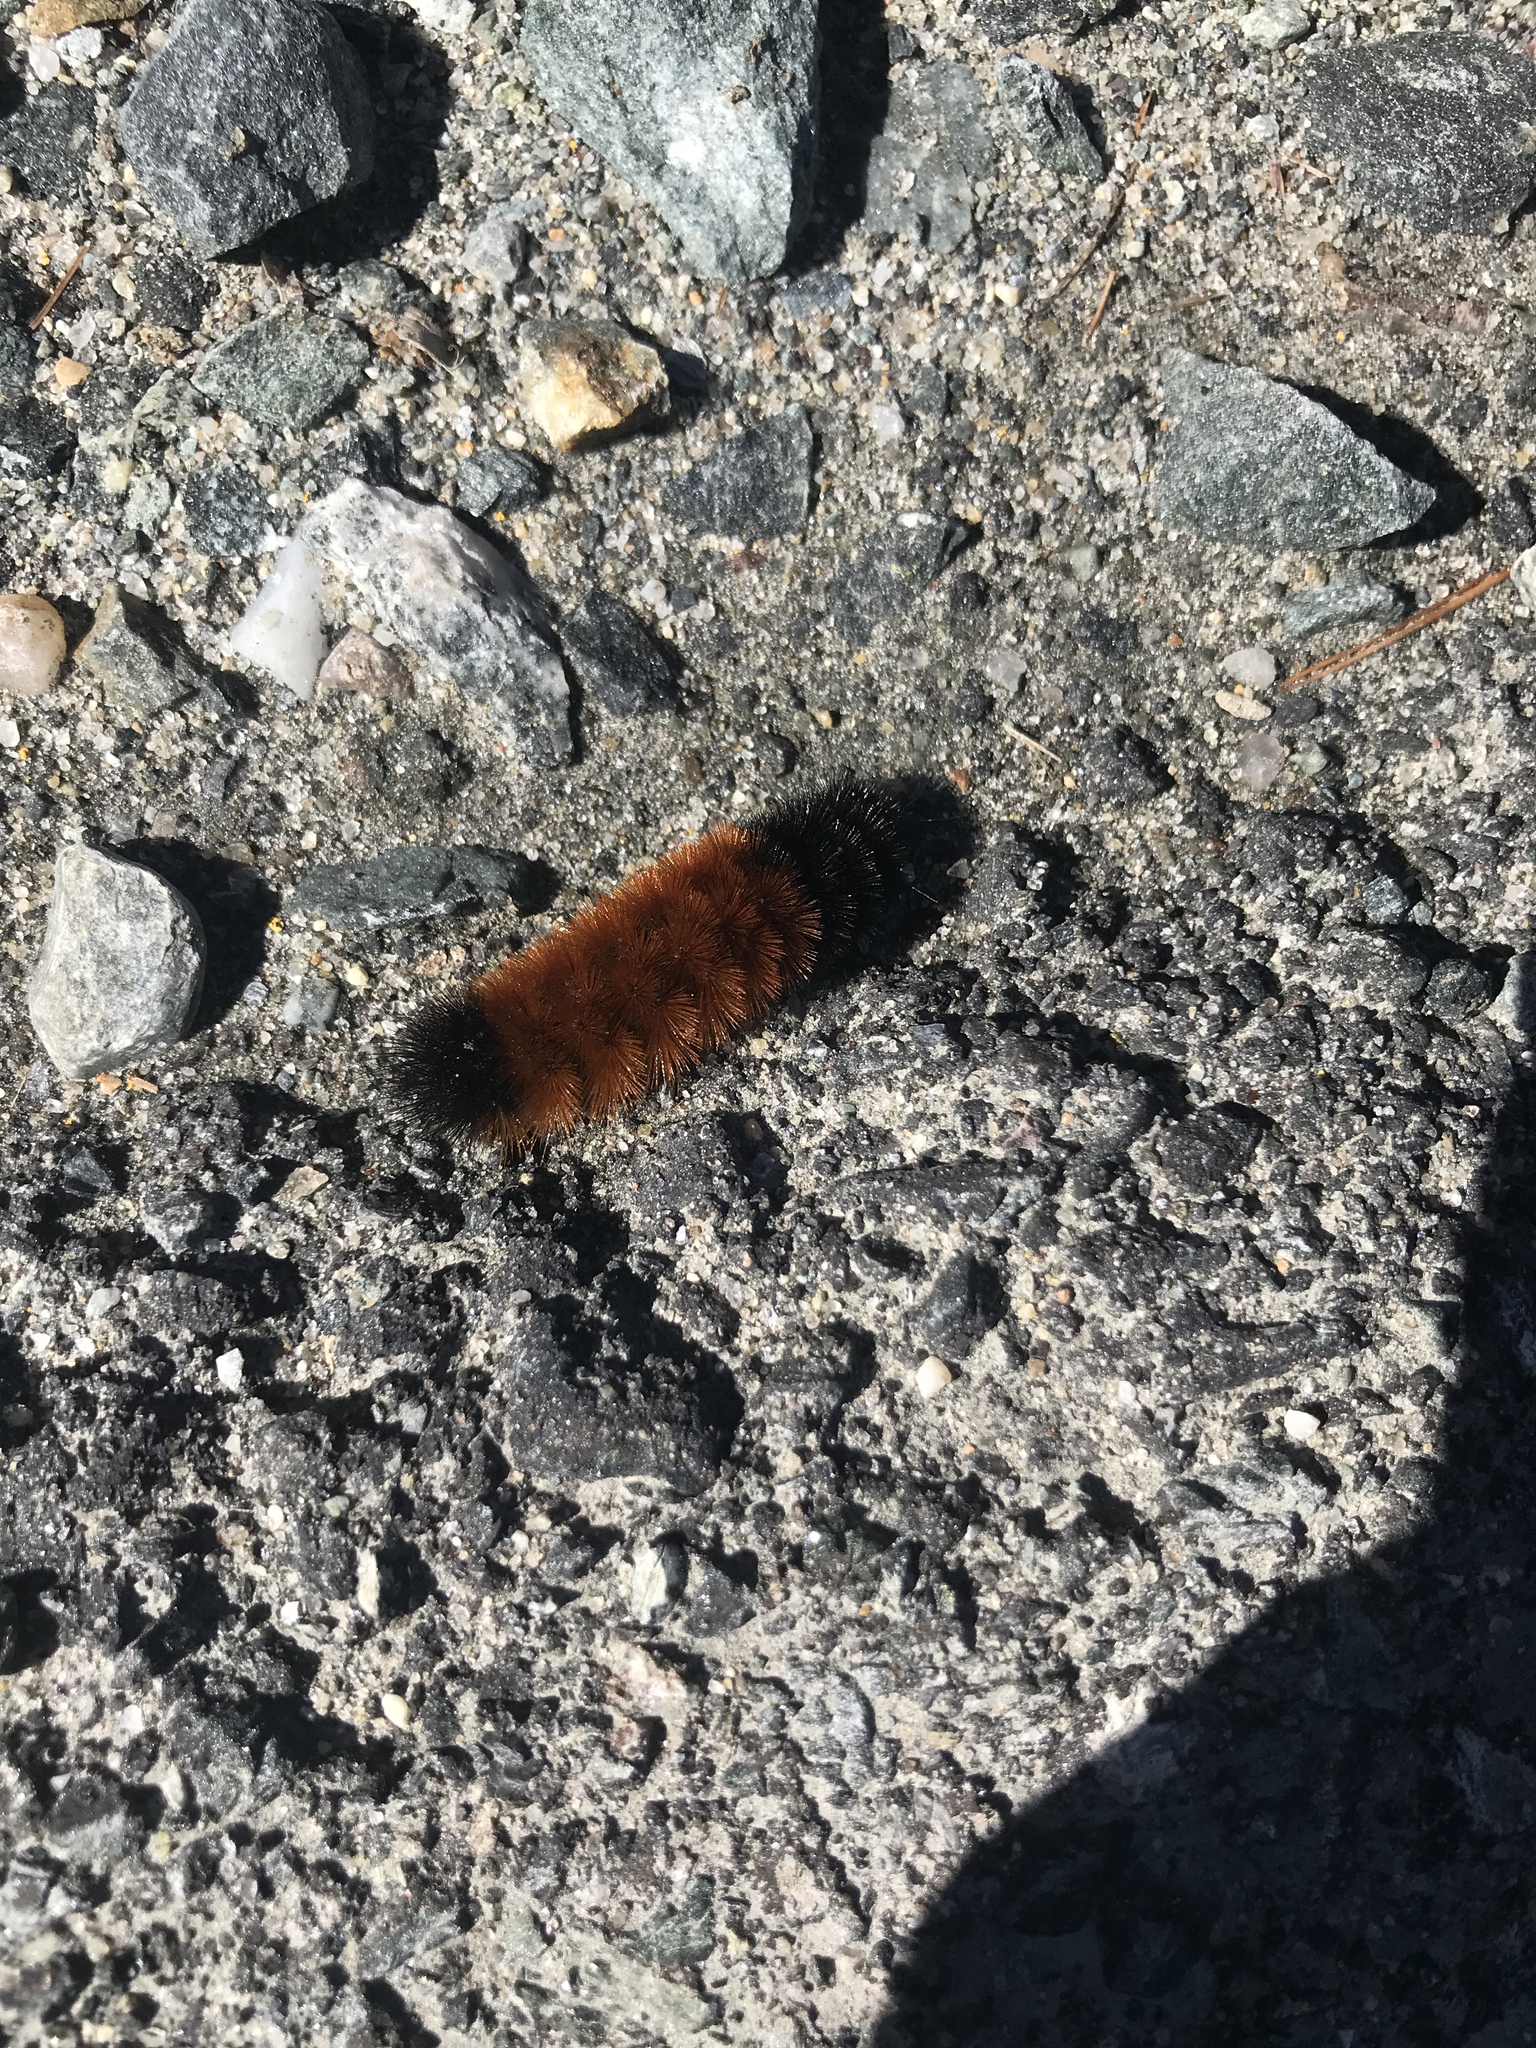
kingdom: Animalia
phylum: Arthropoda
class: Insecta
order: Lepidoptera
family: Erebidae
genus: Pyrrharctia
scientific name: Pyrrharctia isabella
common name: Isabella tiger moth
